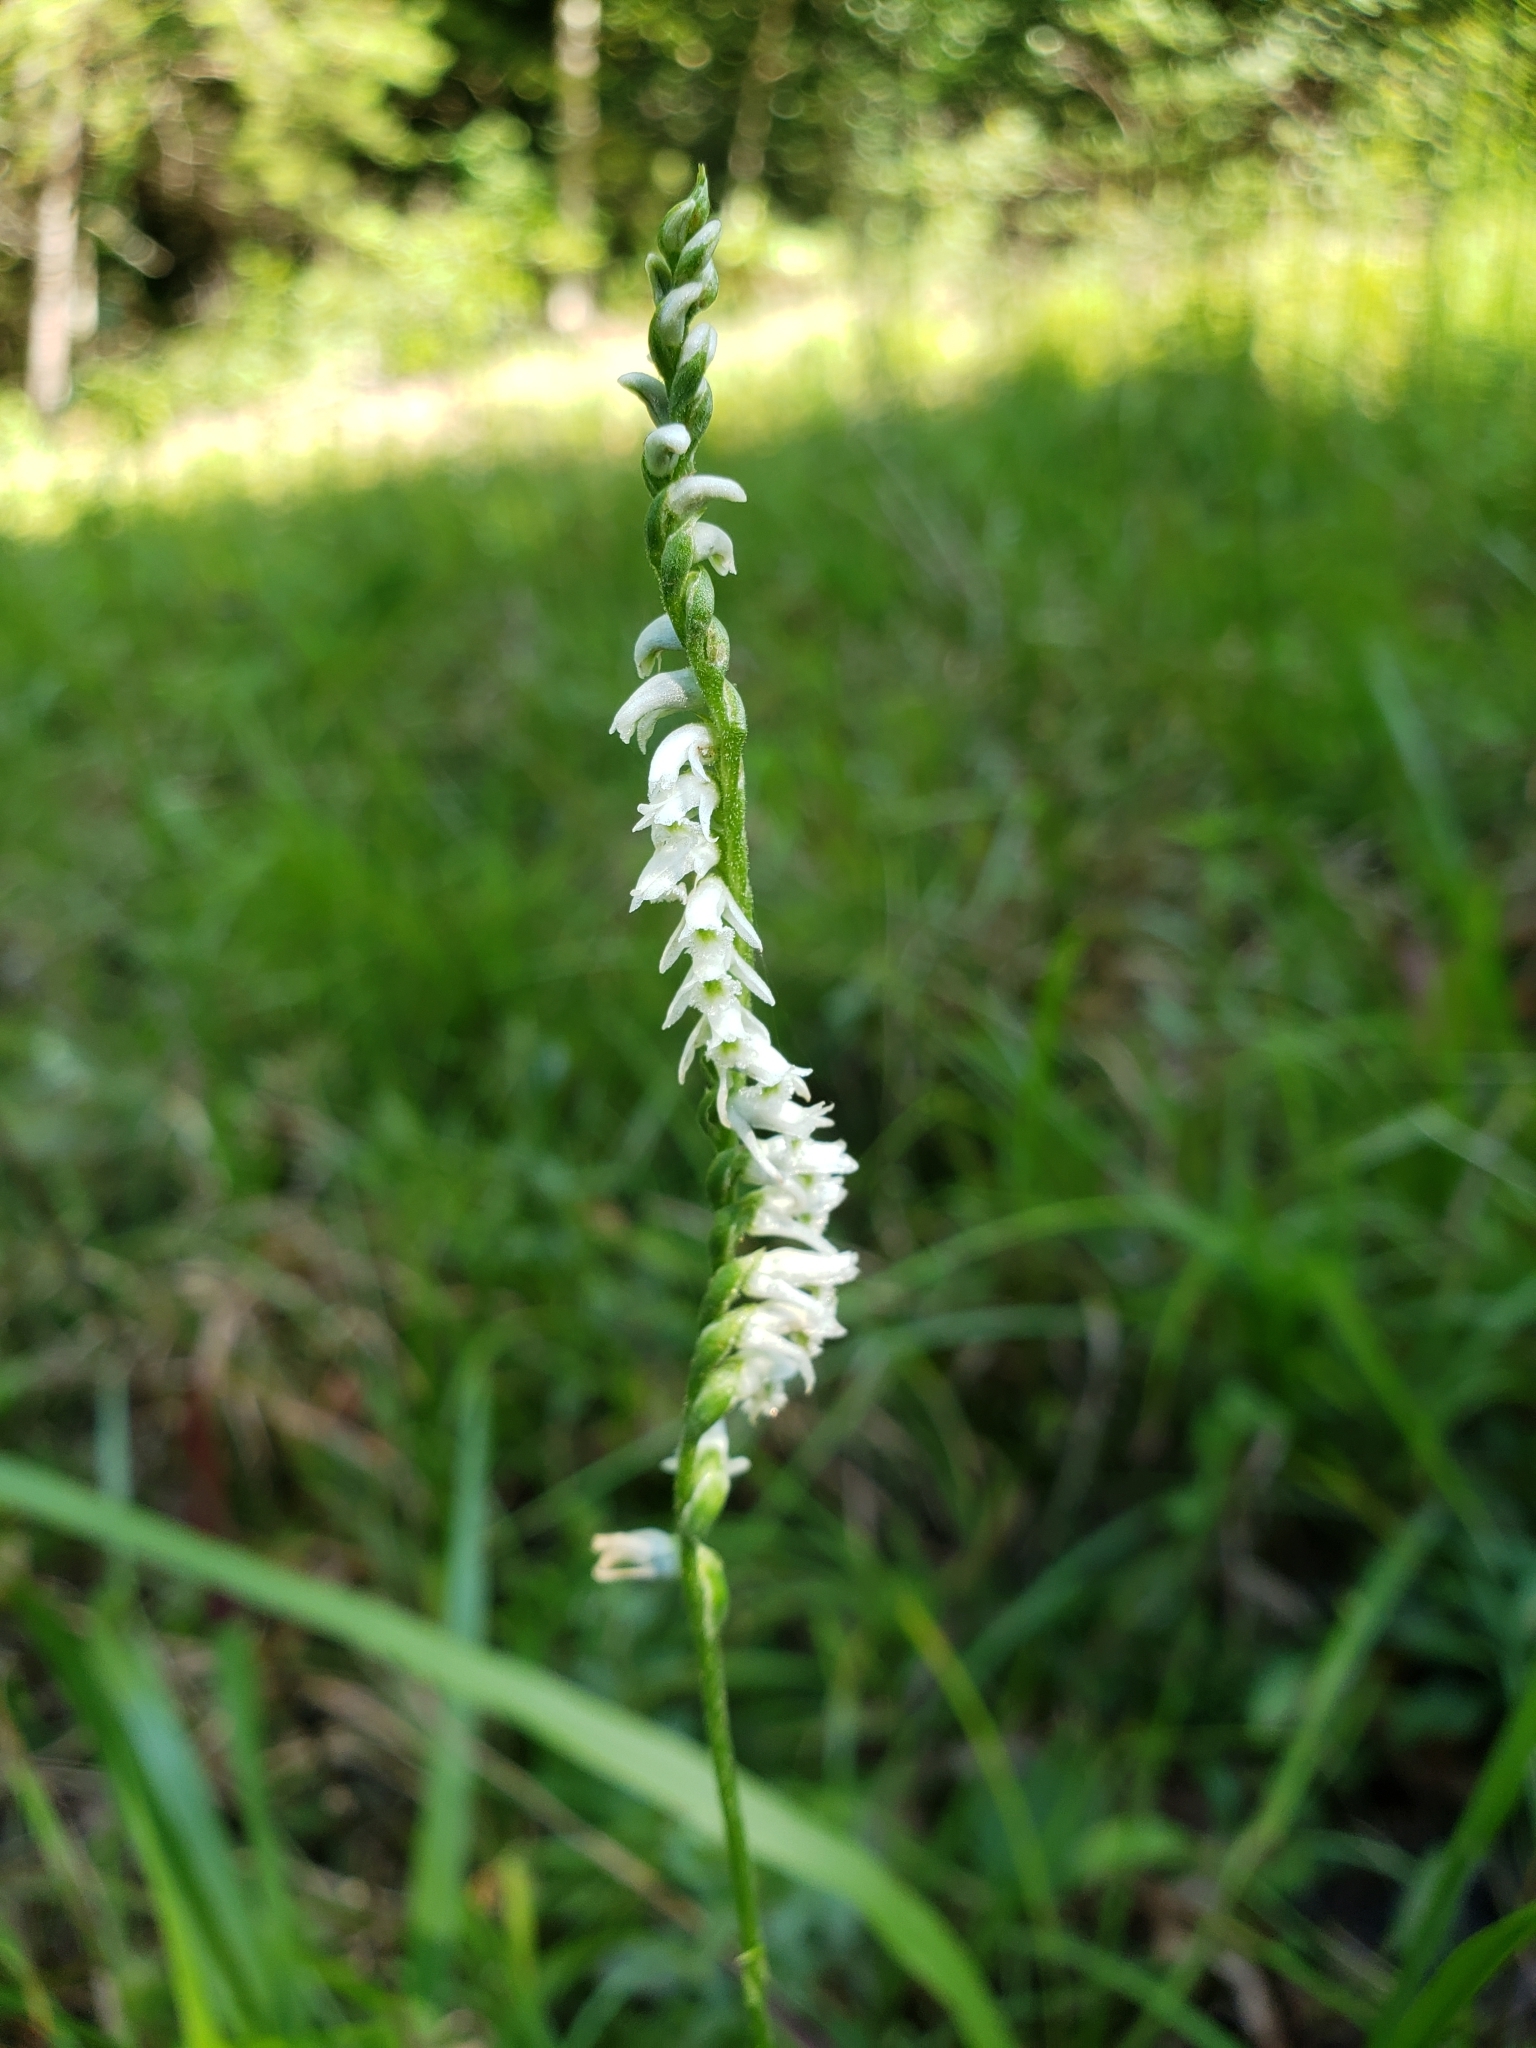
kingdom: Plantae
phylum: Tracheophyta
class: Liliopsida
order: Asparagales
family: Orchidaceae
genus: Spiranthes
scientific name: Spiranthes lacera
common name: Northern slender ladies'-tresses
